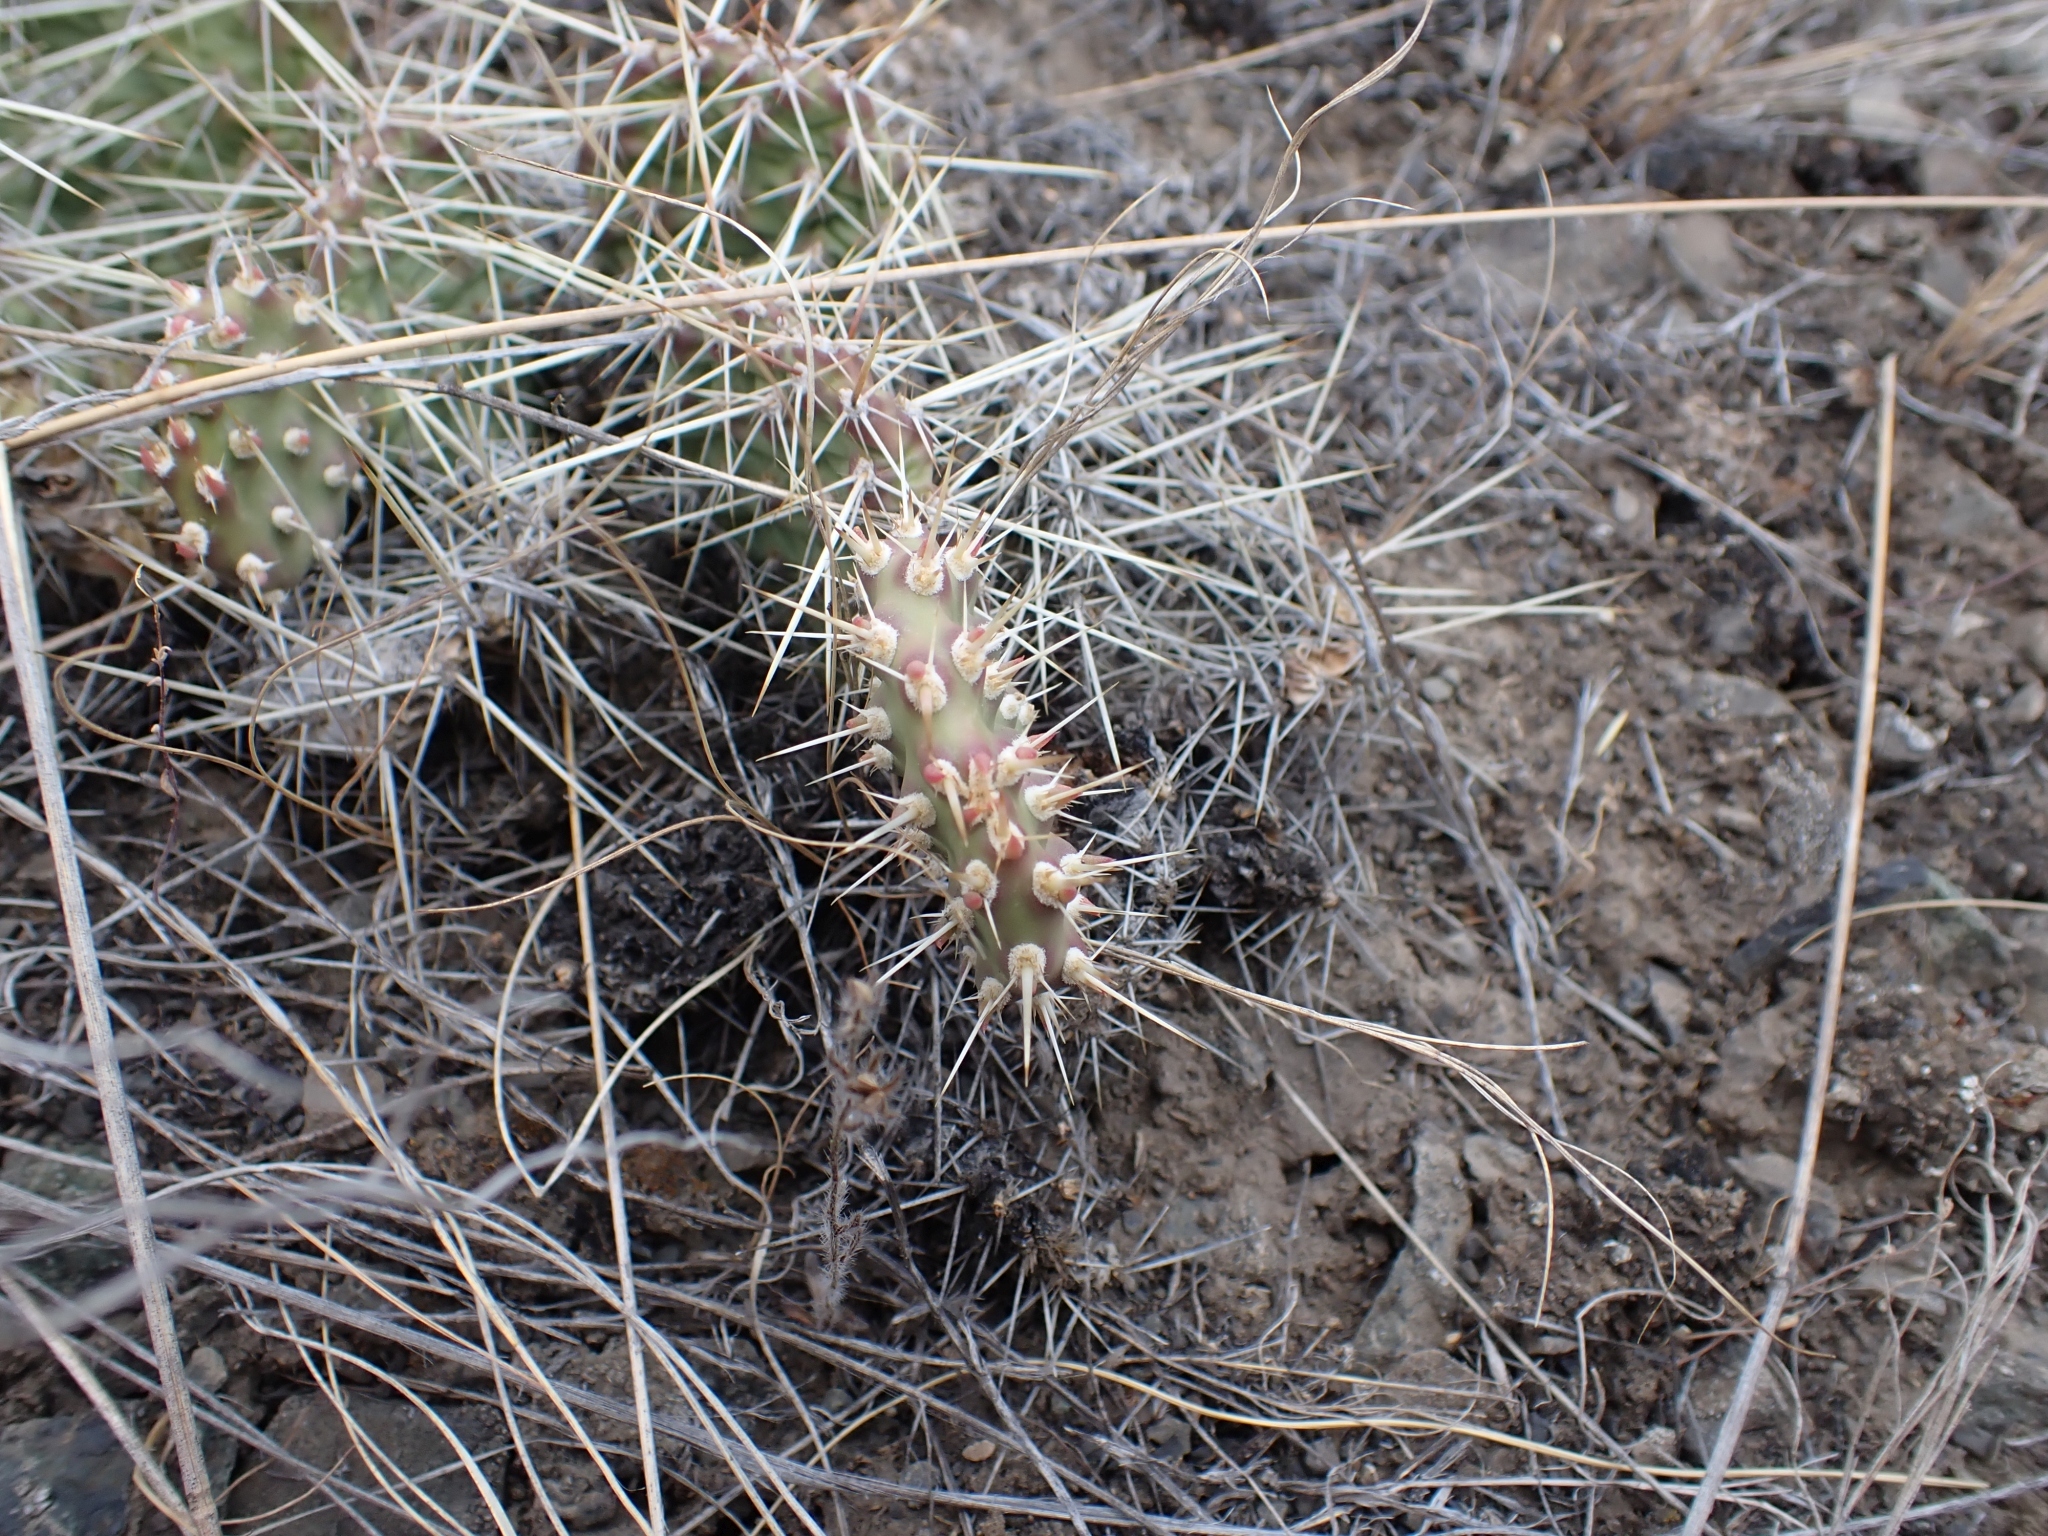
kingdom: Plantae
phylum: Tracheophyta
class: Magnoliopsida
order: Caryophyllales
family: Cactaceae
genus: Opuntia
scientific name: Opuntia columbiana
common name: Columbia prickly-pear
